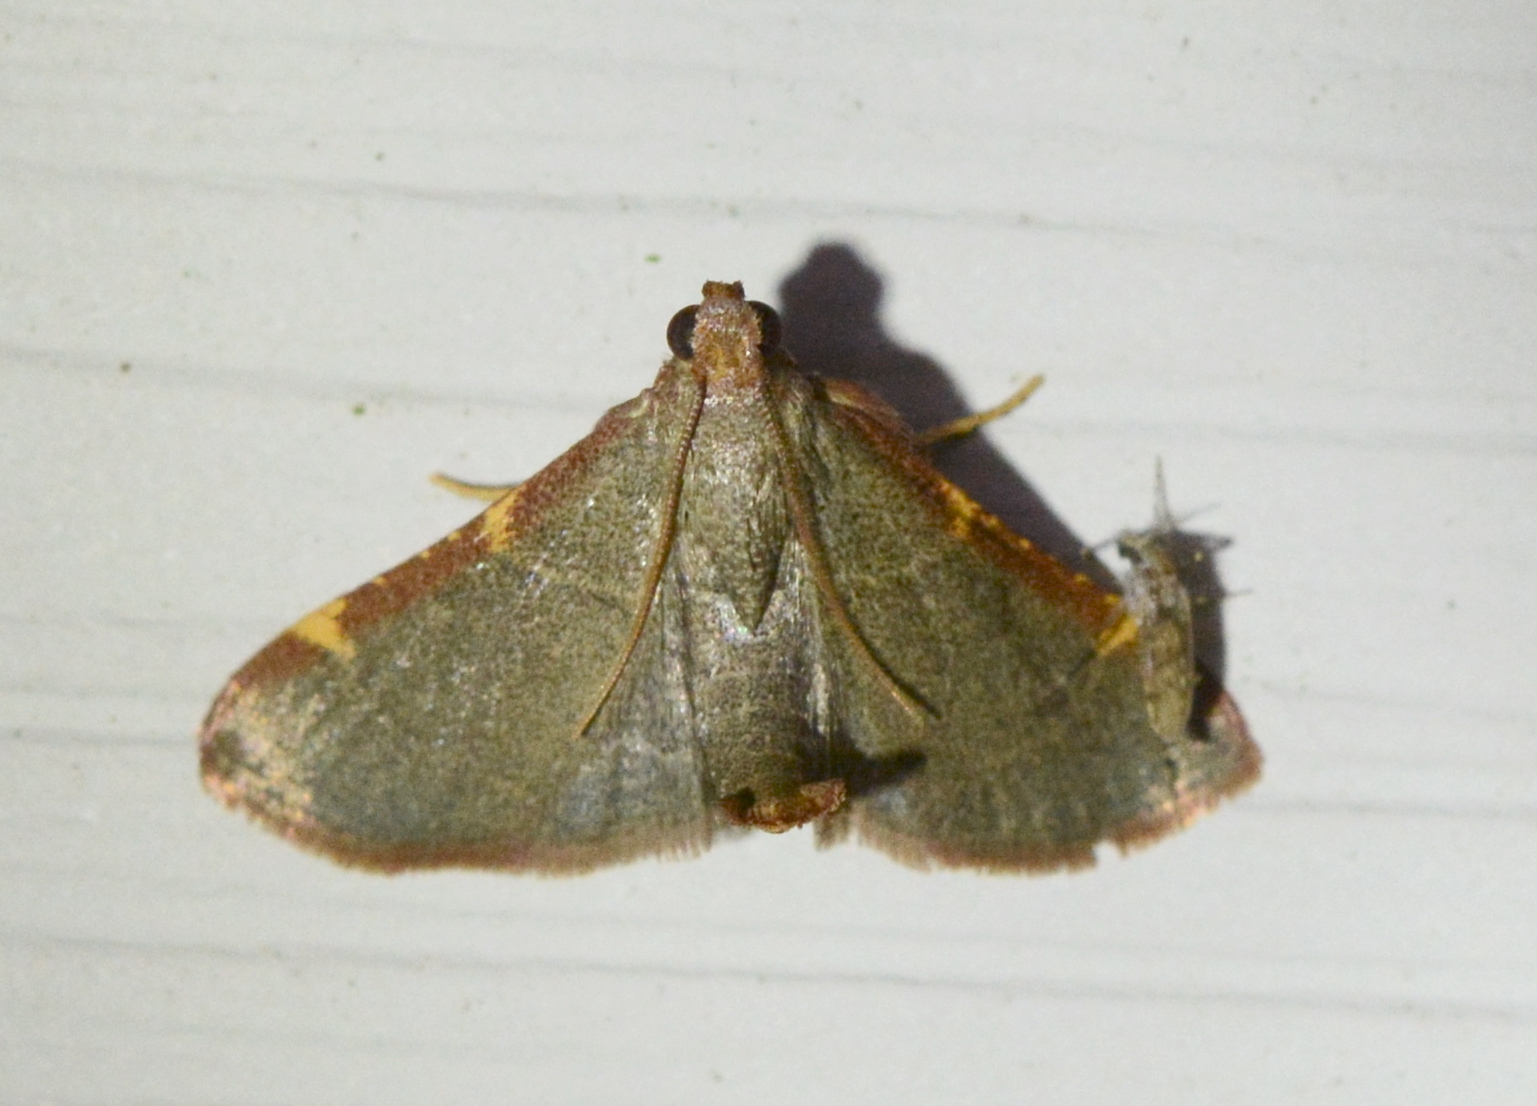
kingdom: Animalia
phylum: Arthropoda
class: Insecta
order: Lepidoptera
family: Pyralidae
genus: Hypsopygia
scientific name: Hypsopygia binodulalis
